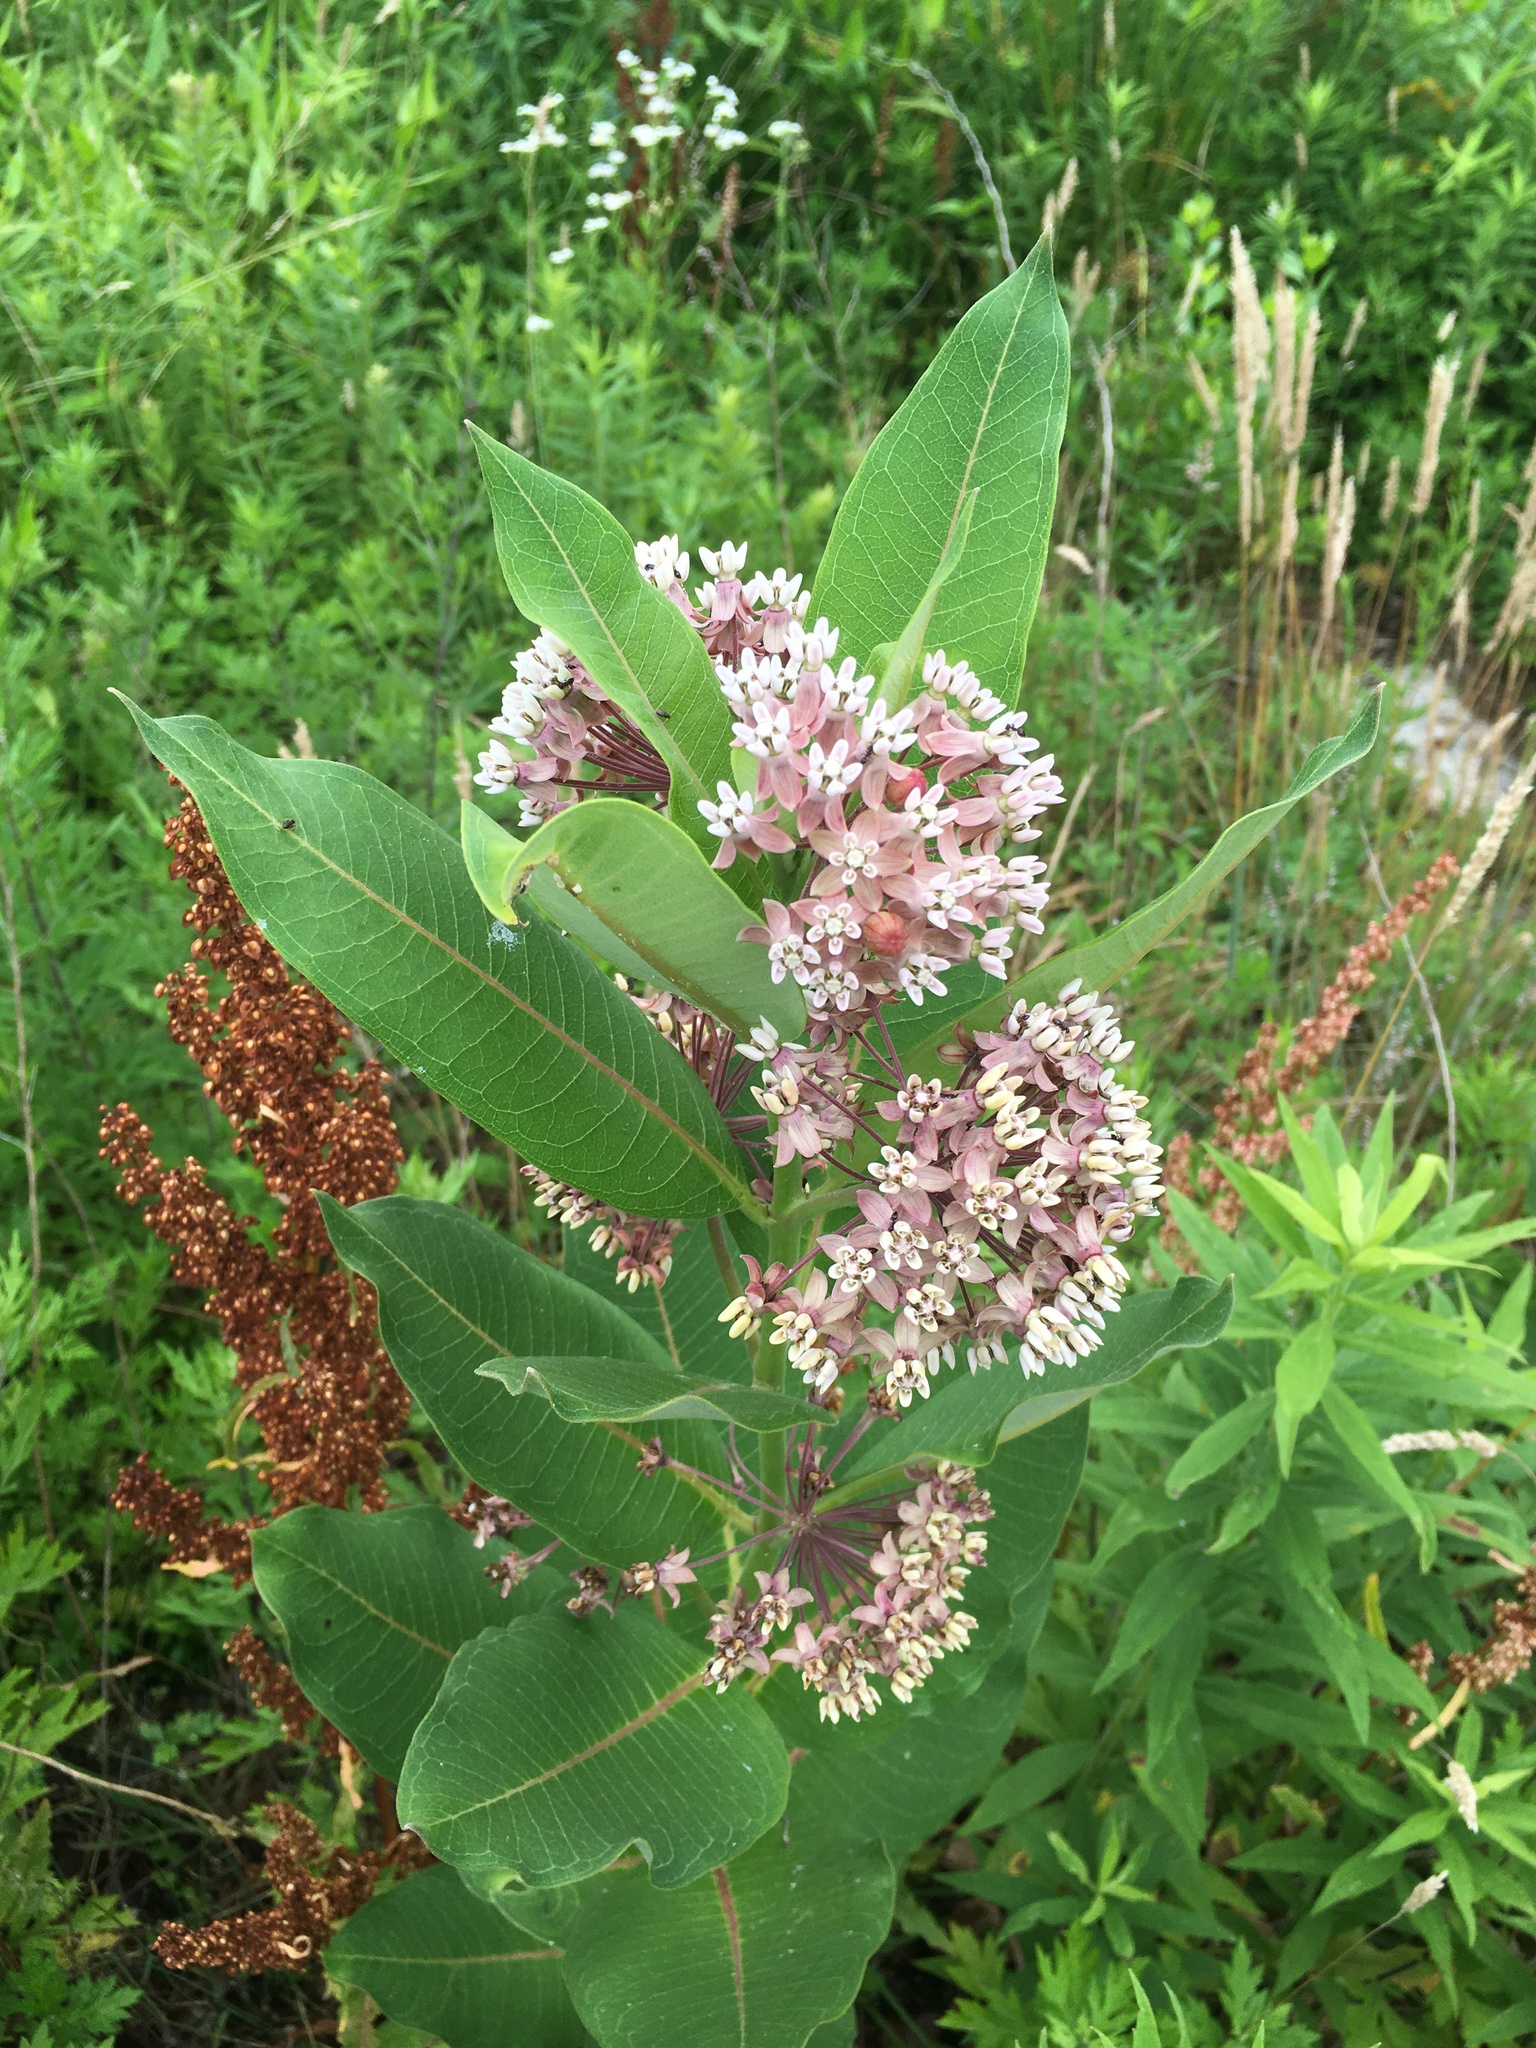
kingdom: Plantae
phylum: Tracheophyta
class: Magnoliopsida
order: Gentianales
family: Apocynaceae
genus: Asclepias
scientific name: Asclepias syriaca
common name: Common milkweed
